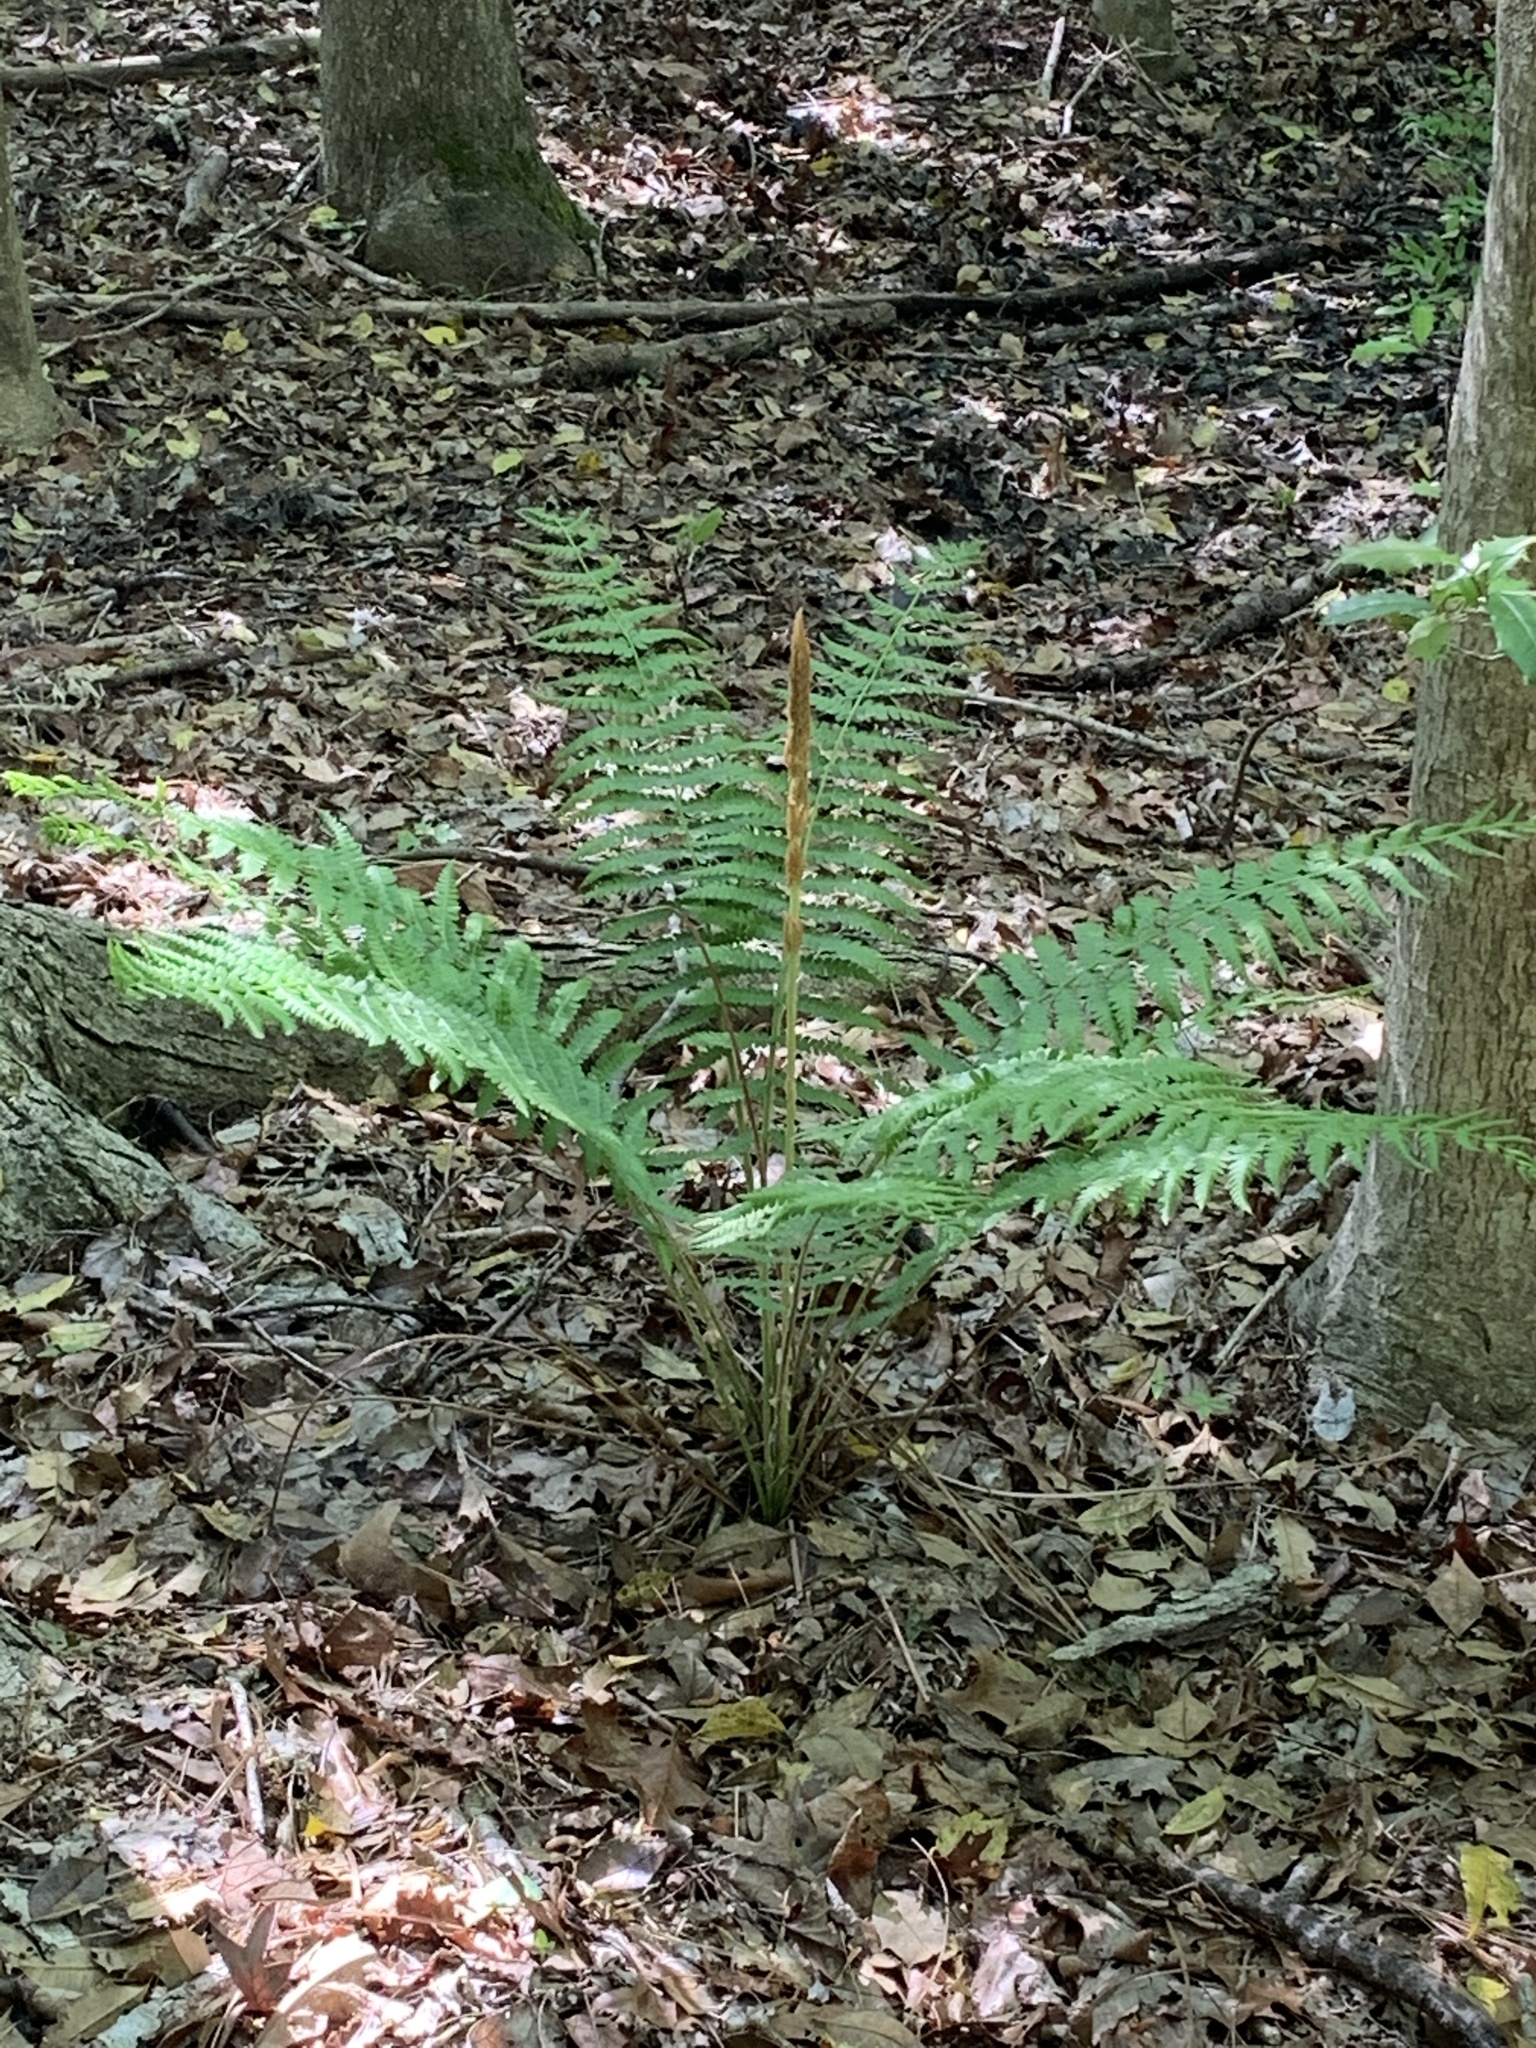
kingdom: Plantae
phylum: Tracheophyta
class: Polypodiopsida
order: Osmundales
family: Osmundaceae
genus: Osmundastrum
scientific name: Osmundastrum cinnamomeum
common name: Cinnamon fern
